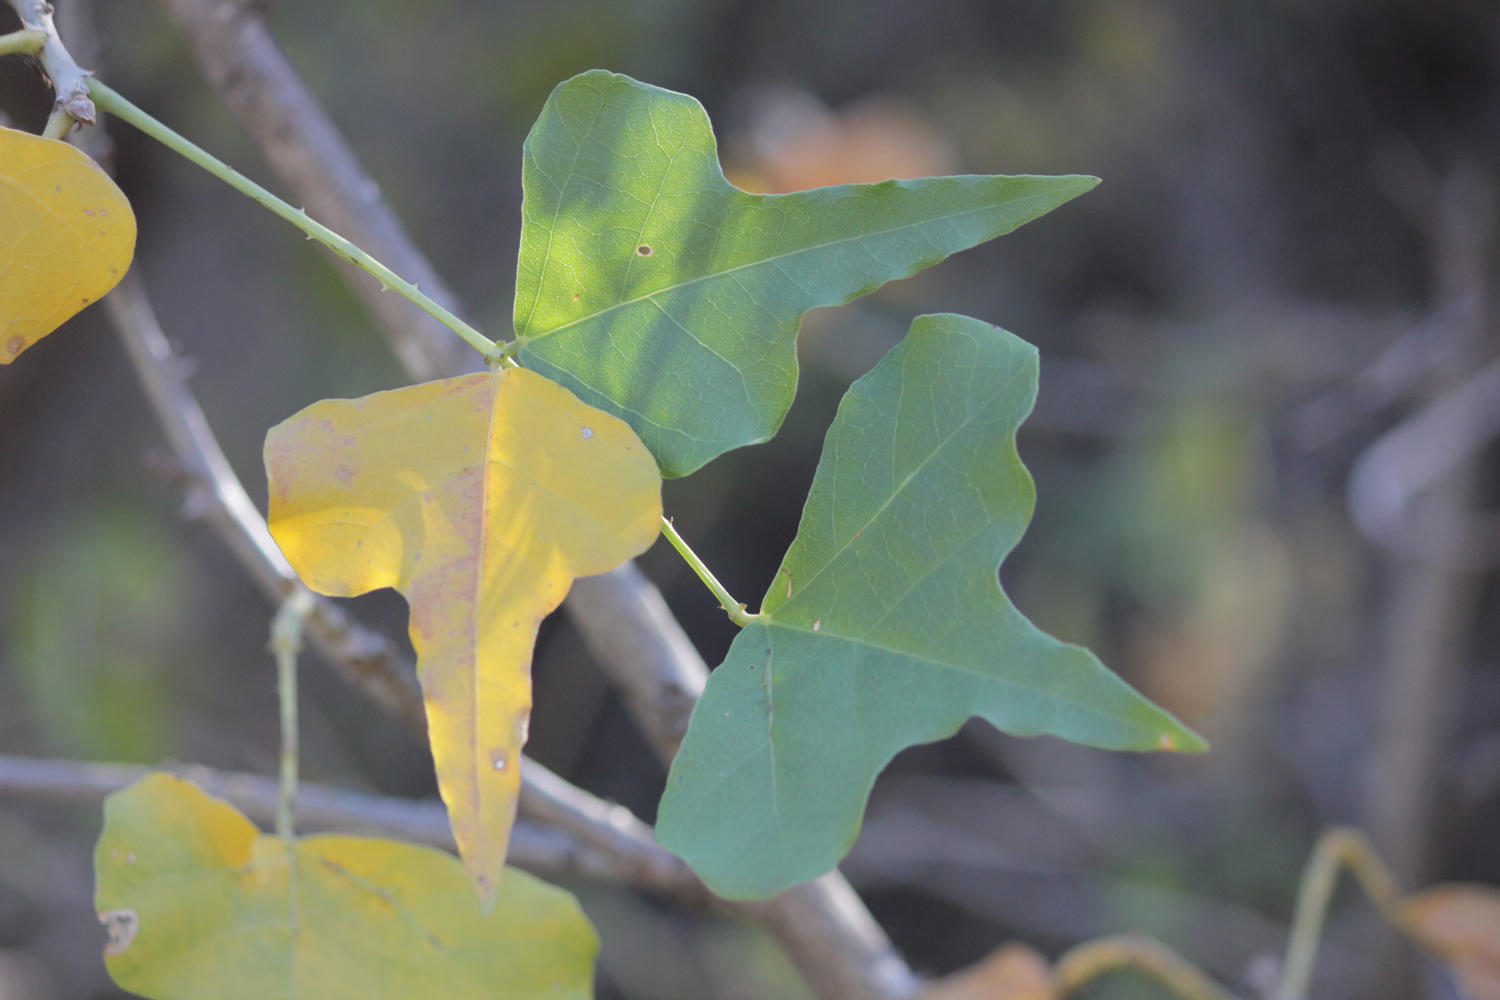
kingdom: Plantae
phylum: Tracheophyta
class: Magnoliopsida
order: Fabales
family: Fabaceae
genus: Erythrina
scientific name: Erythrina humeana
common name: Dwarf coral tree
